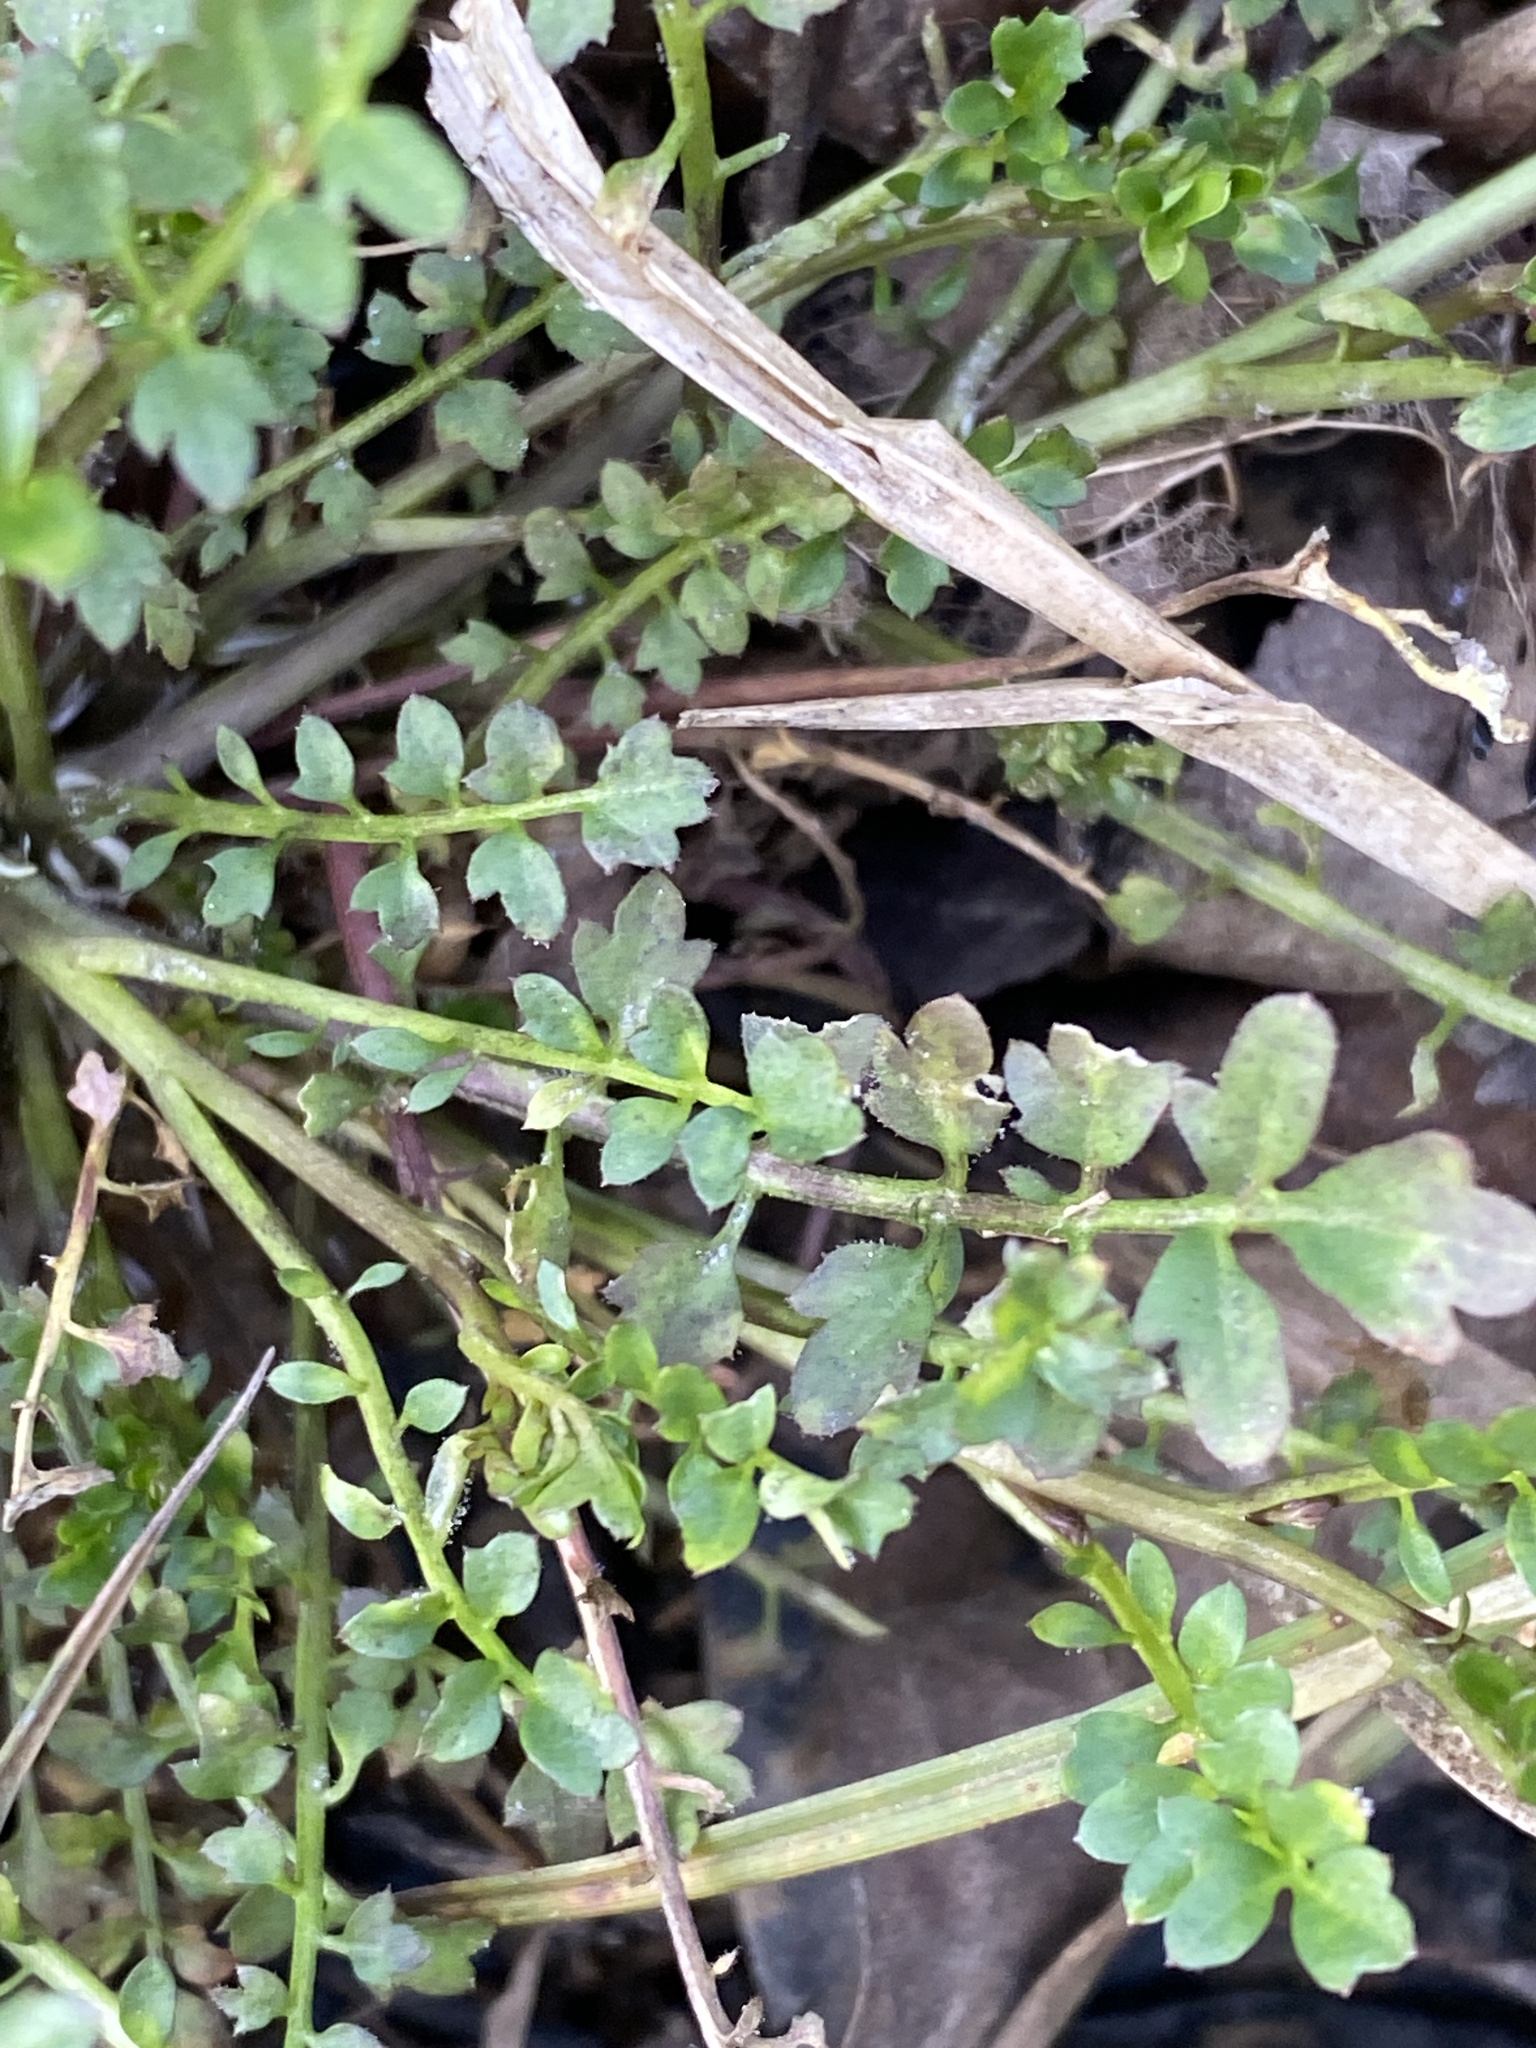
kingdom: Plantae
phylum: Tracheophyta
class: Magnoliopsida
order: Brassicales
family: Brassicaceae
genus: Cardamine
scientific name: Cardamine occulta
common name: Asian wavy bittercress
